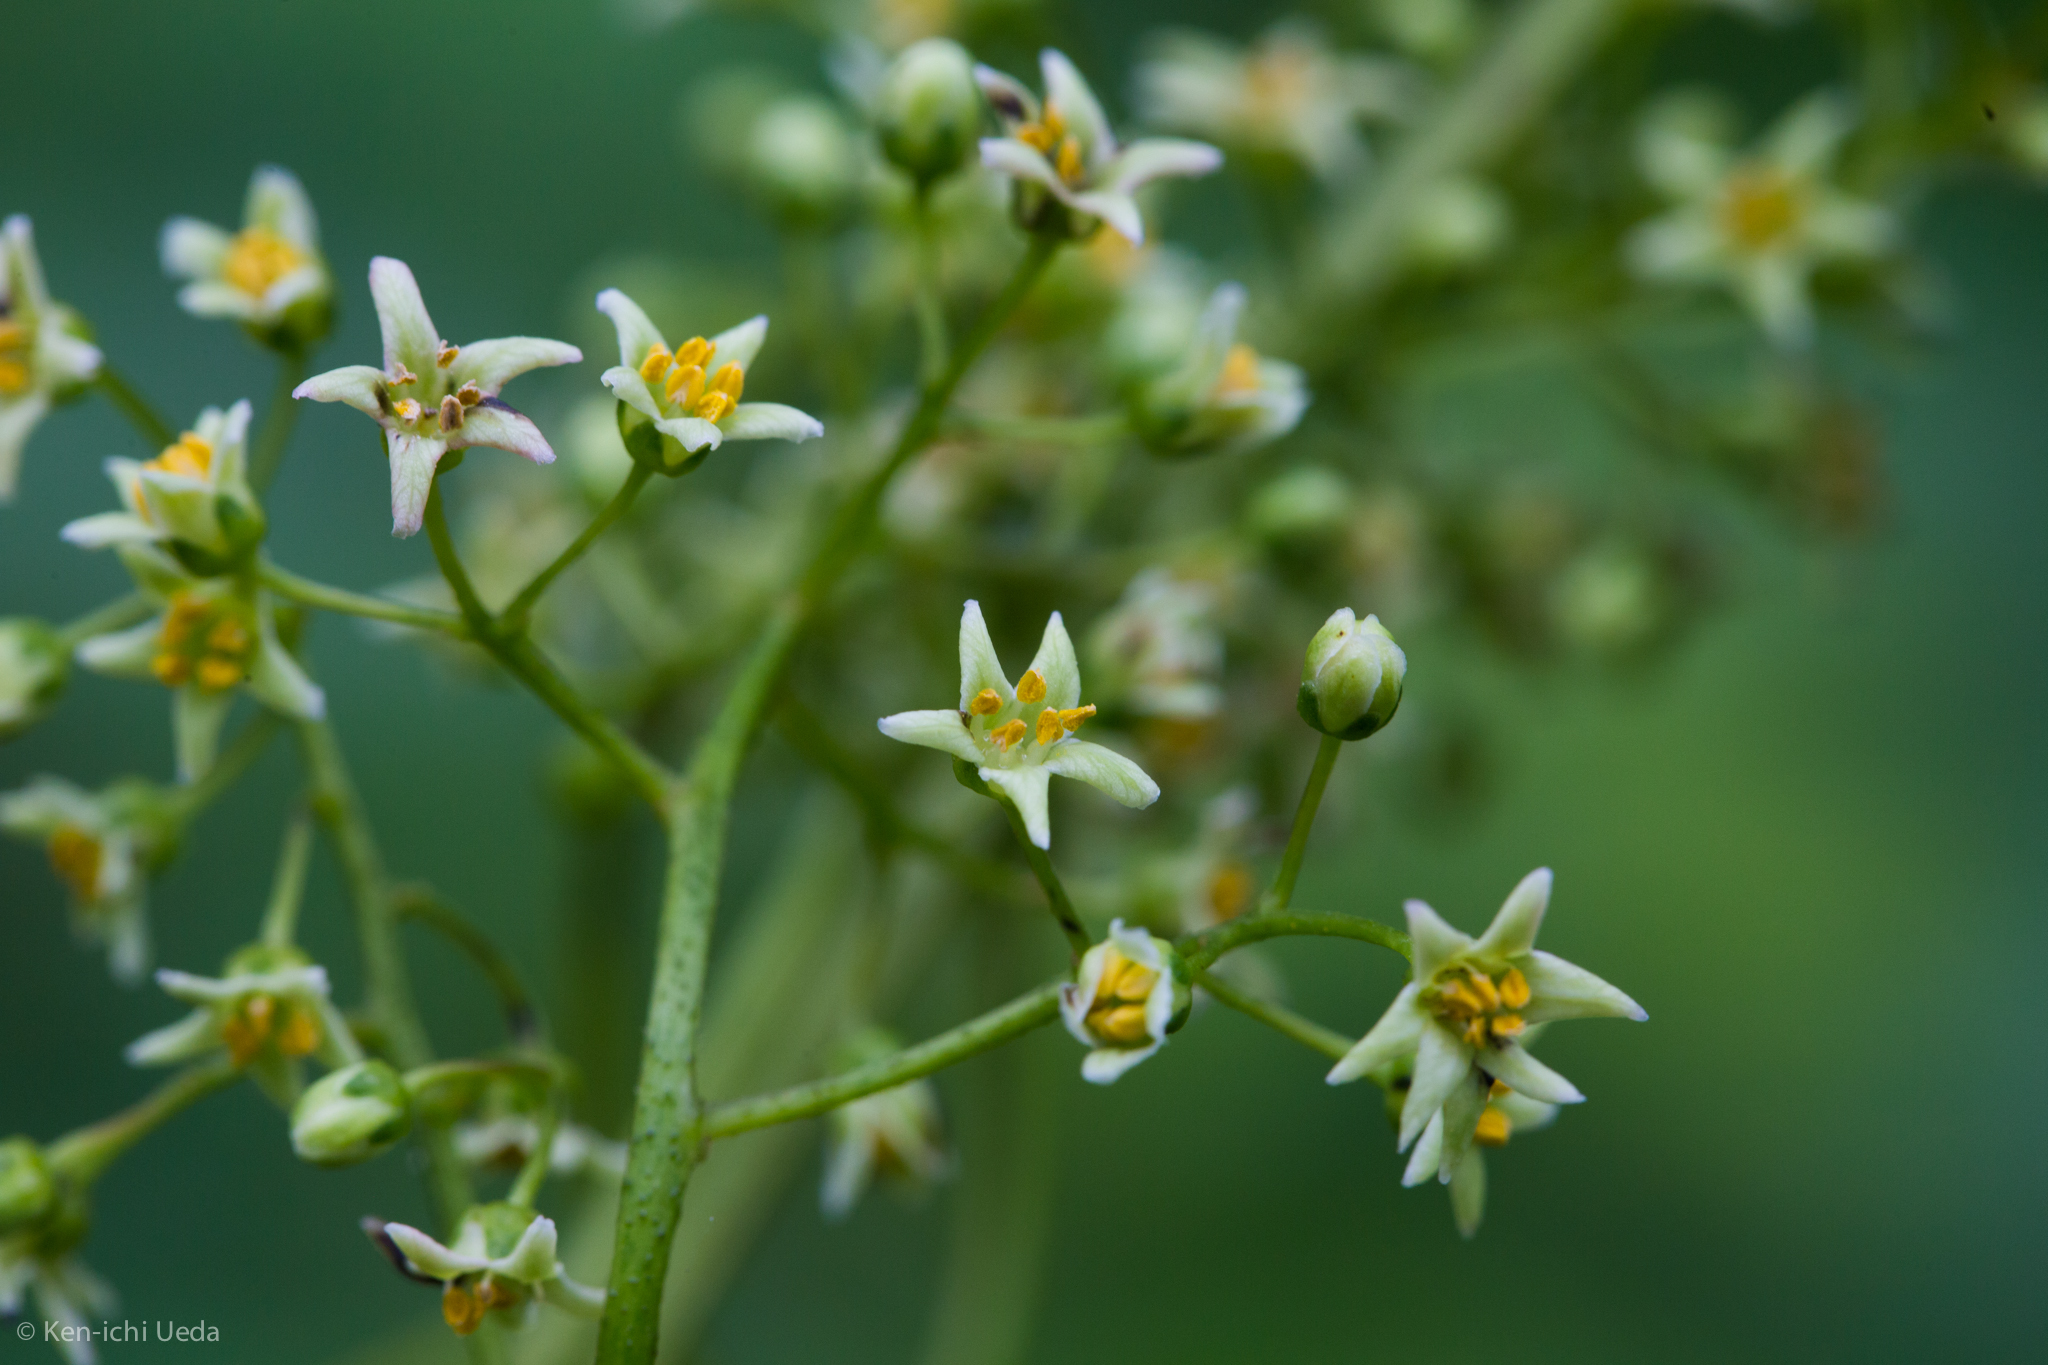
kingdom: Plantae
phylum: Tracheophyta
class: Magnoliopsida
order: Sapindales
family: Anacardiaceae
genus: Toxicodendron
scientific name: Toxicodendron diversilobum
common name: Pacific poison-oak
